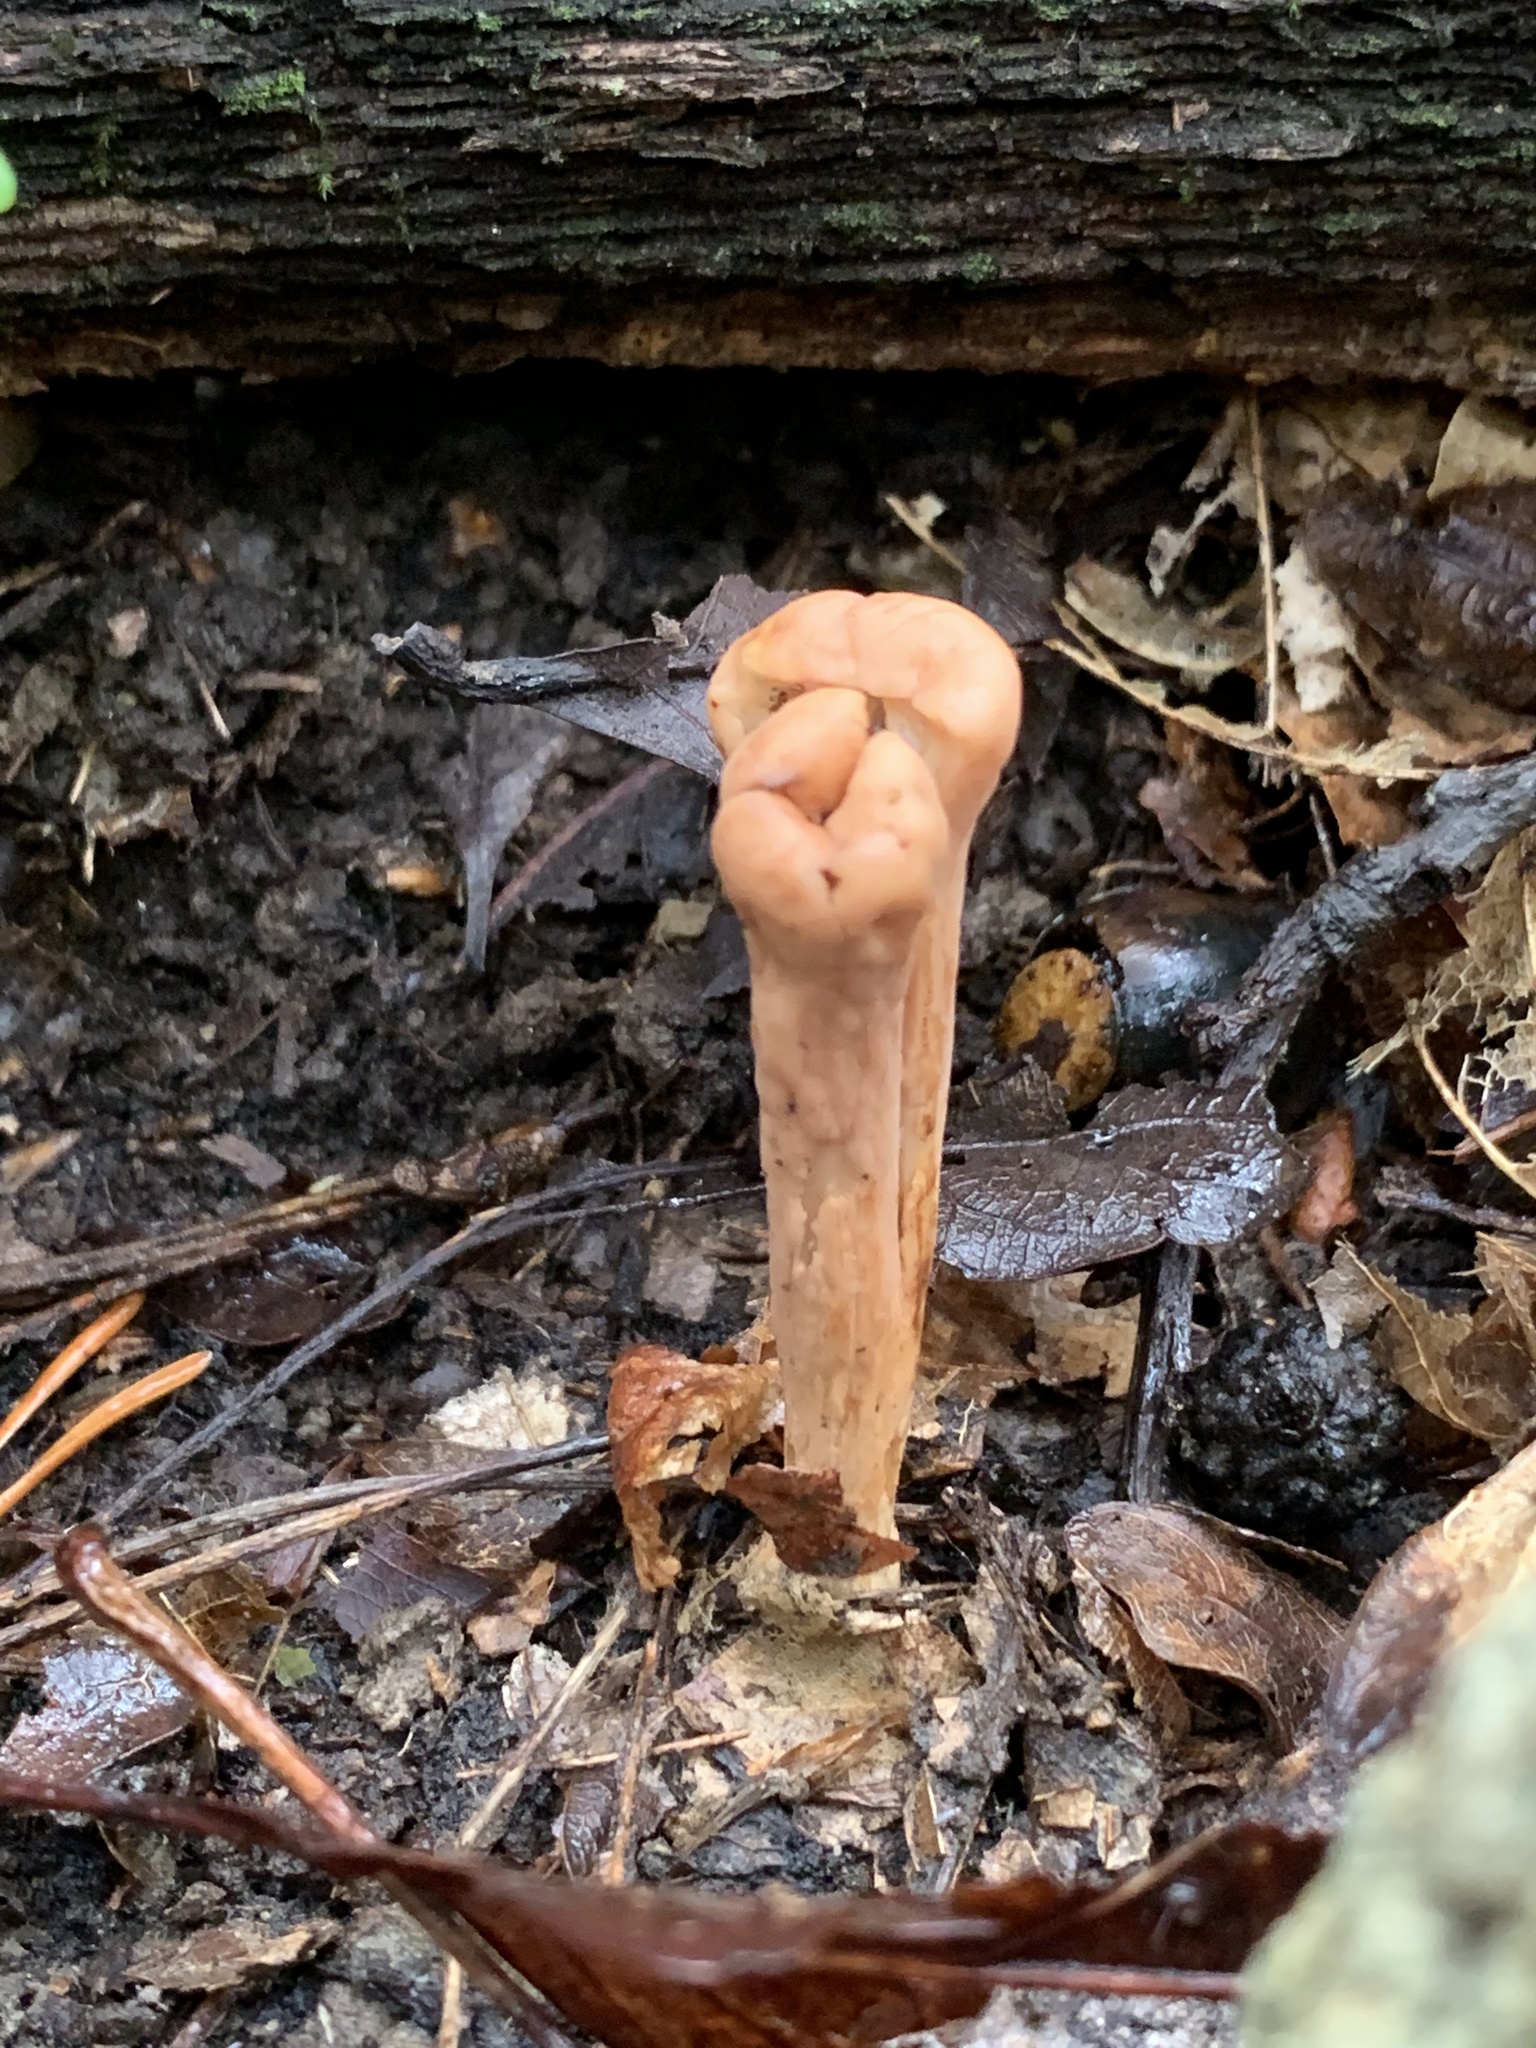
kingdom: Fungi
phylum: Basidiomycota
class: Agaricomycetes
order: Gomphales
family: Clavariadelphaceae
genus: Clavariadelphus
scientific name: Clavariadelphus truncatus
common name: Truncated club
